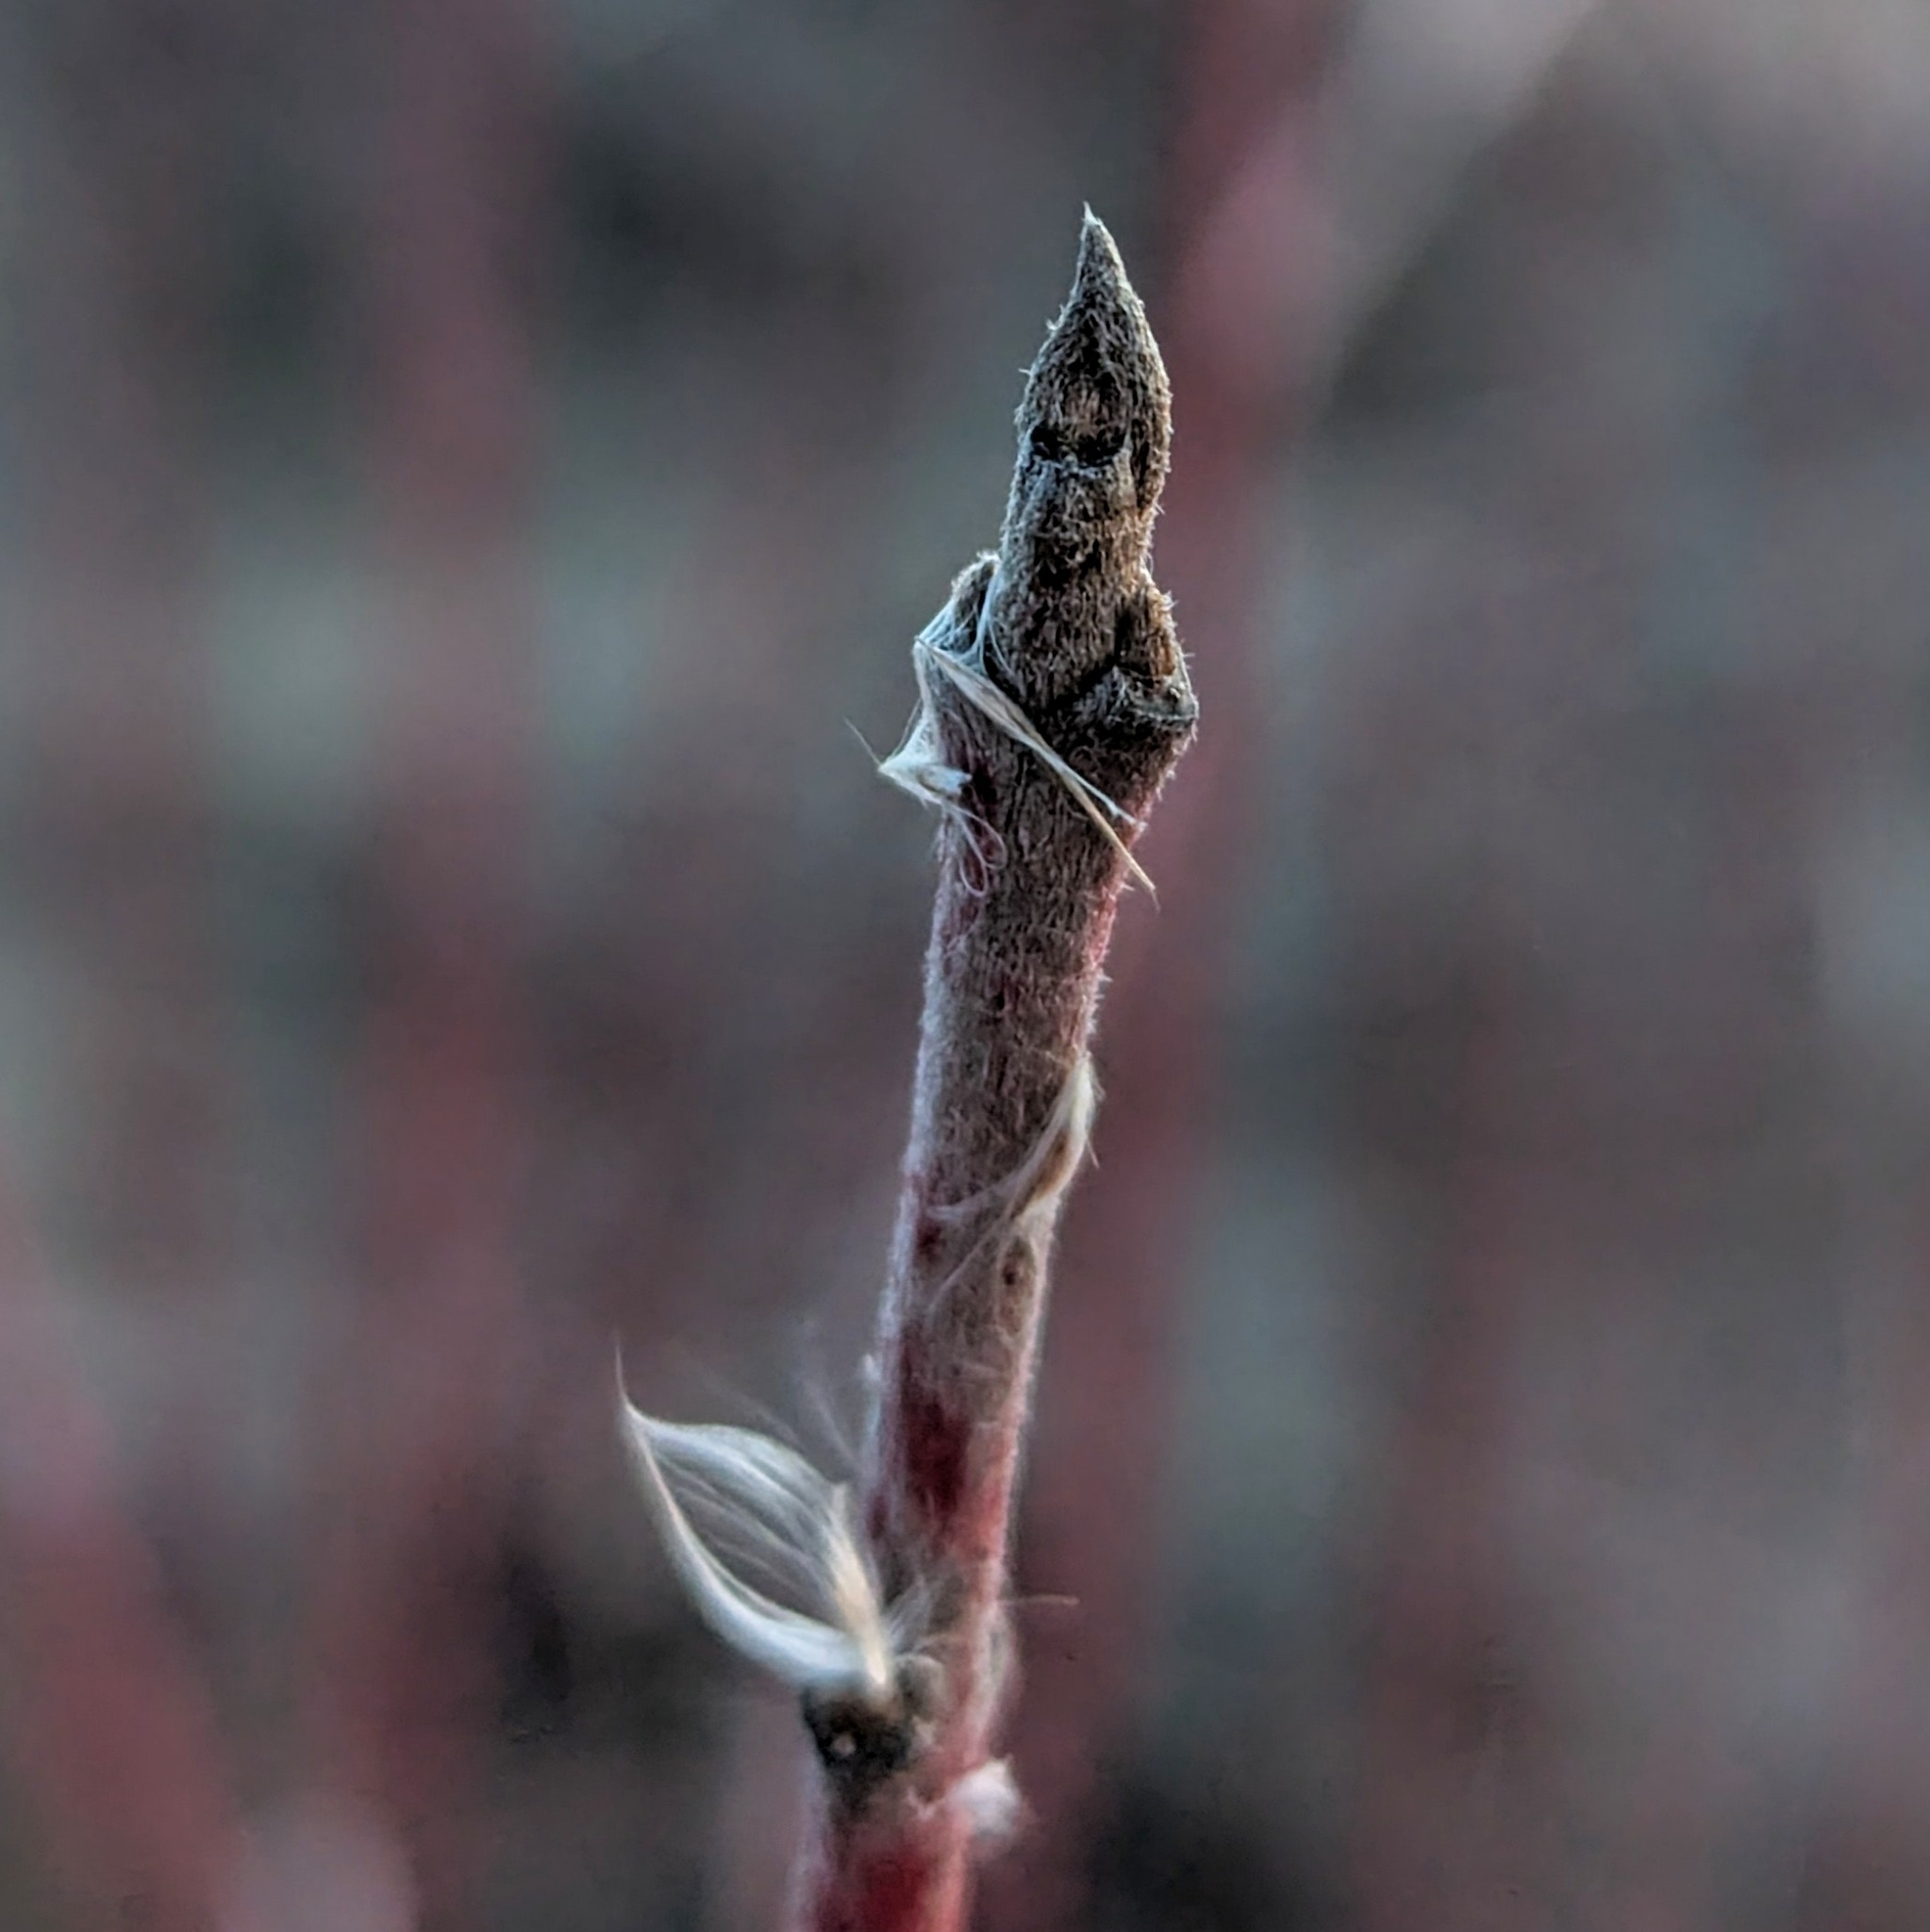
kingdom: Plantae
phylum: Tracheophyta
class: Magnoliopsida
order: Cornales
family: Cornaceae
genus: Cornus
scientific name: Cornus obliqua
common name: Pale dogwood
